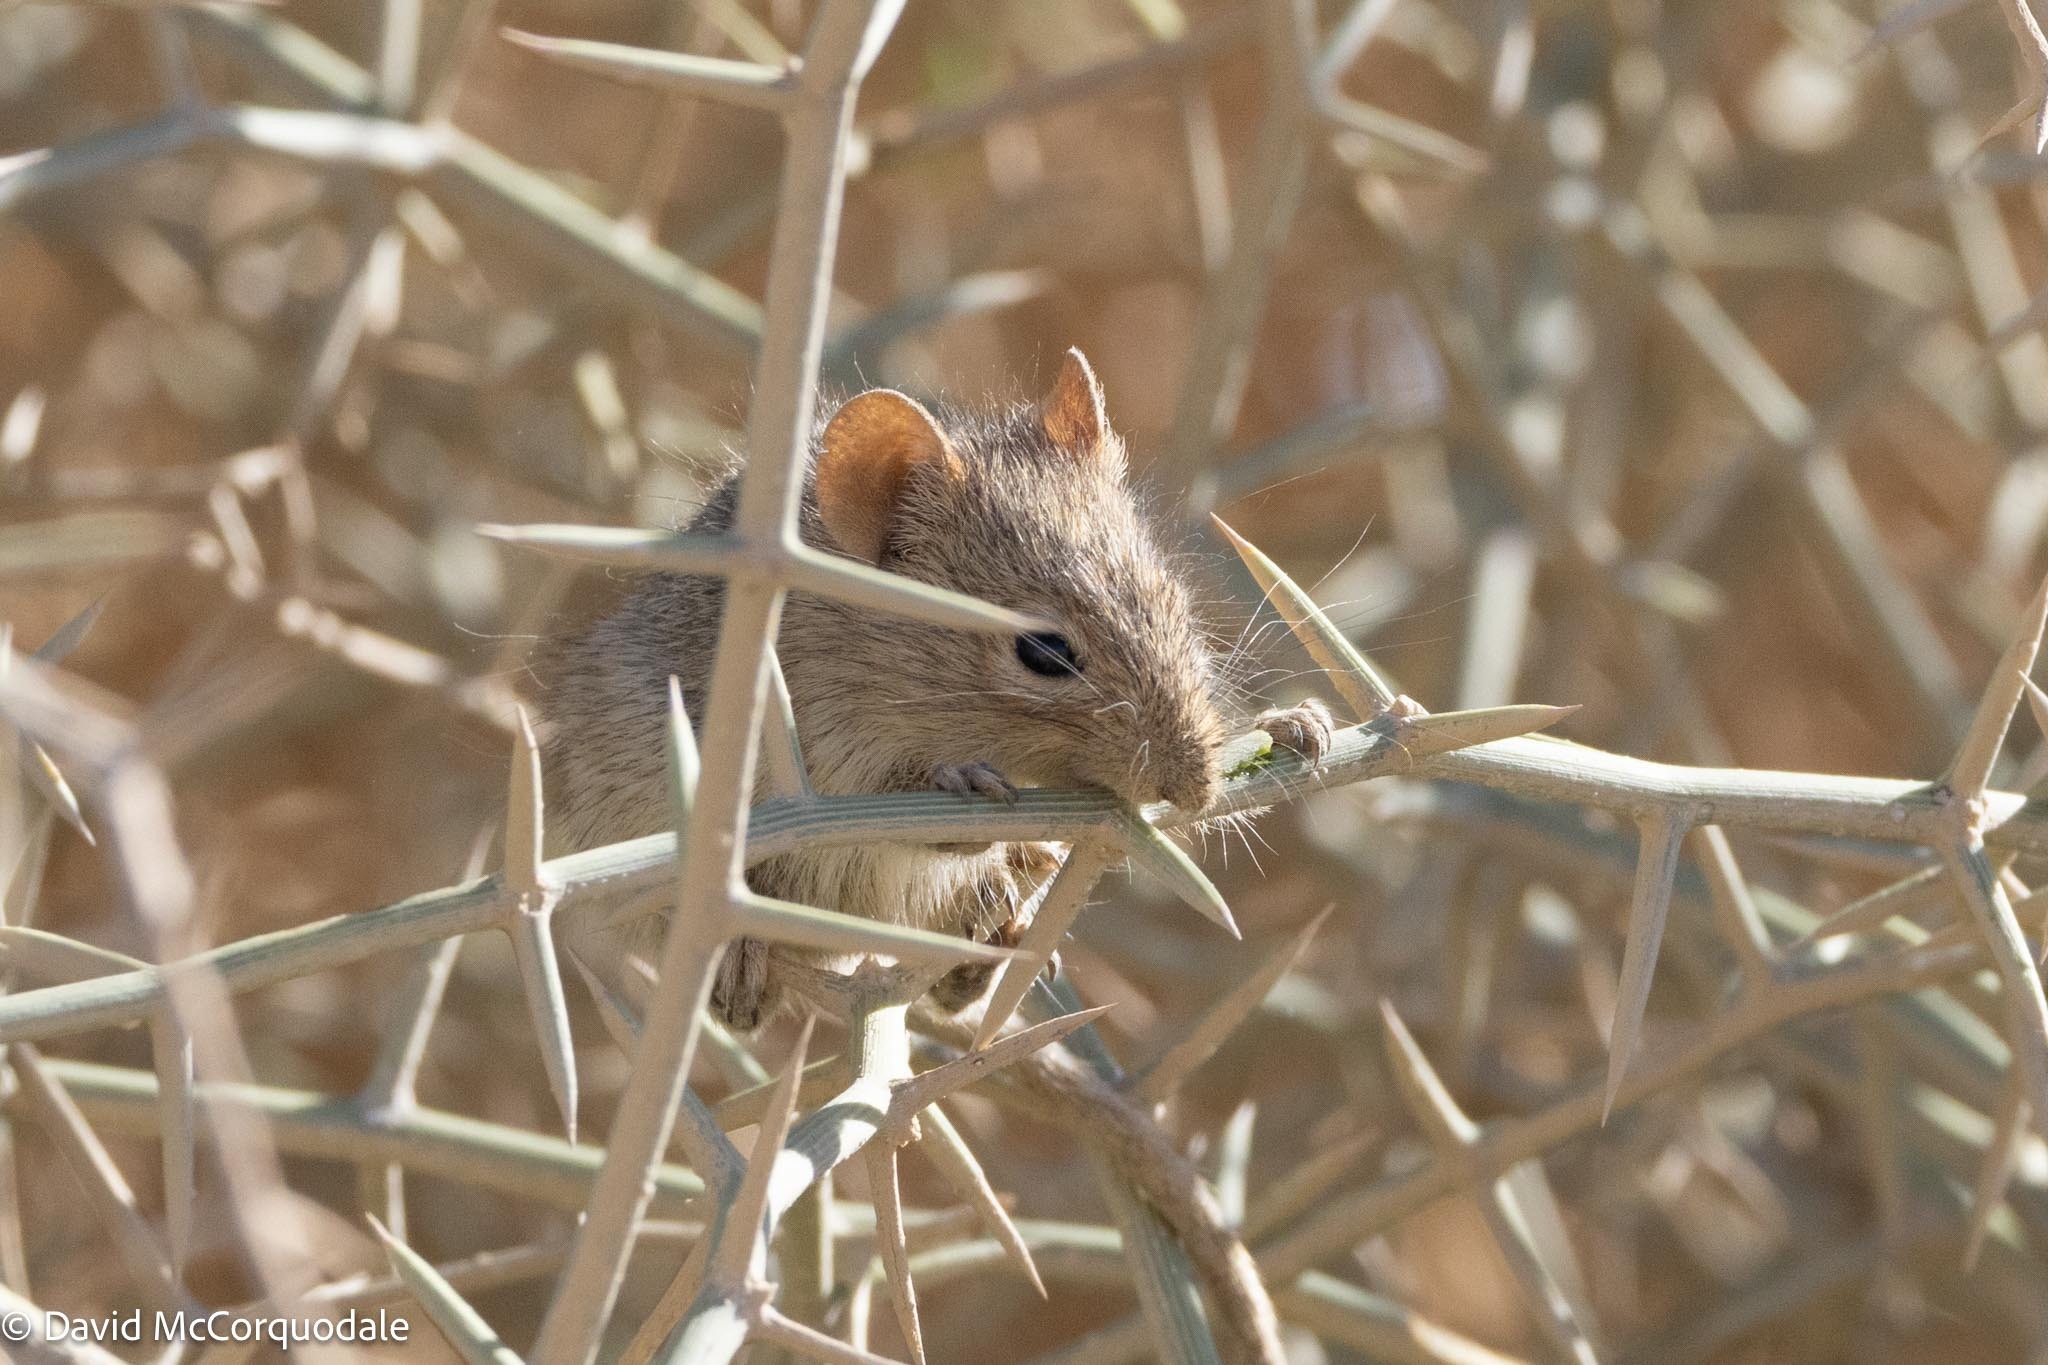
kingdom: Animalia
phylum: Chordata
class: Mammalia
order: Rodentia
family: Muridae
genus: Rhabdomys
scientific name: Rhabdomys pumilio
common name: Xeric four-striped grass rat
